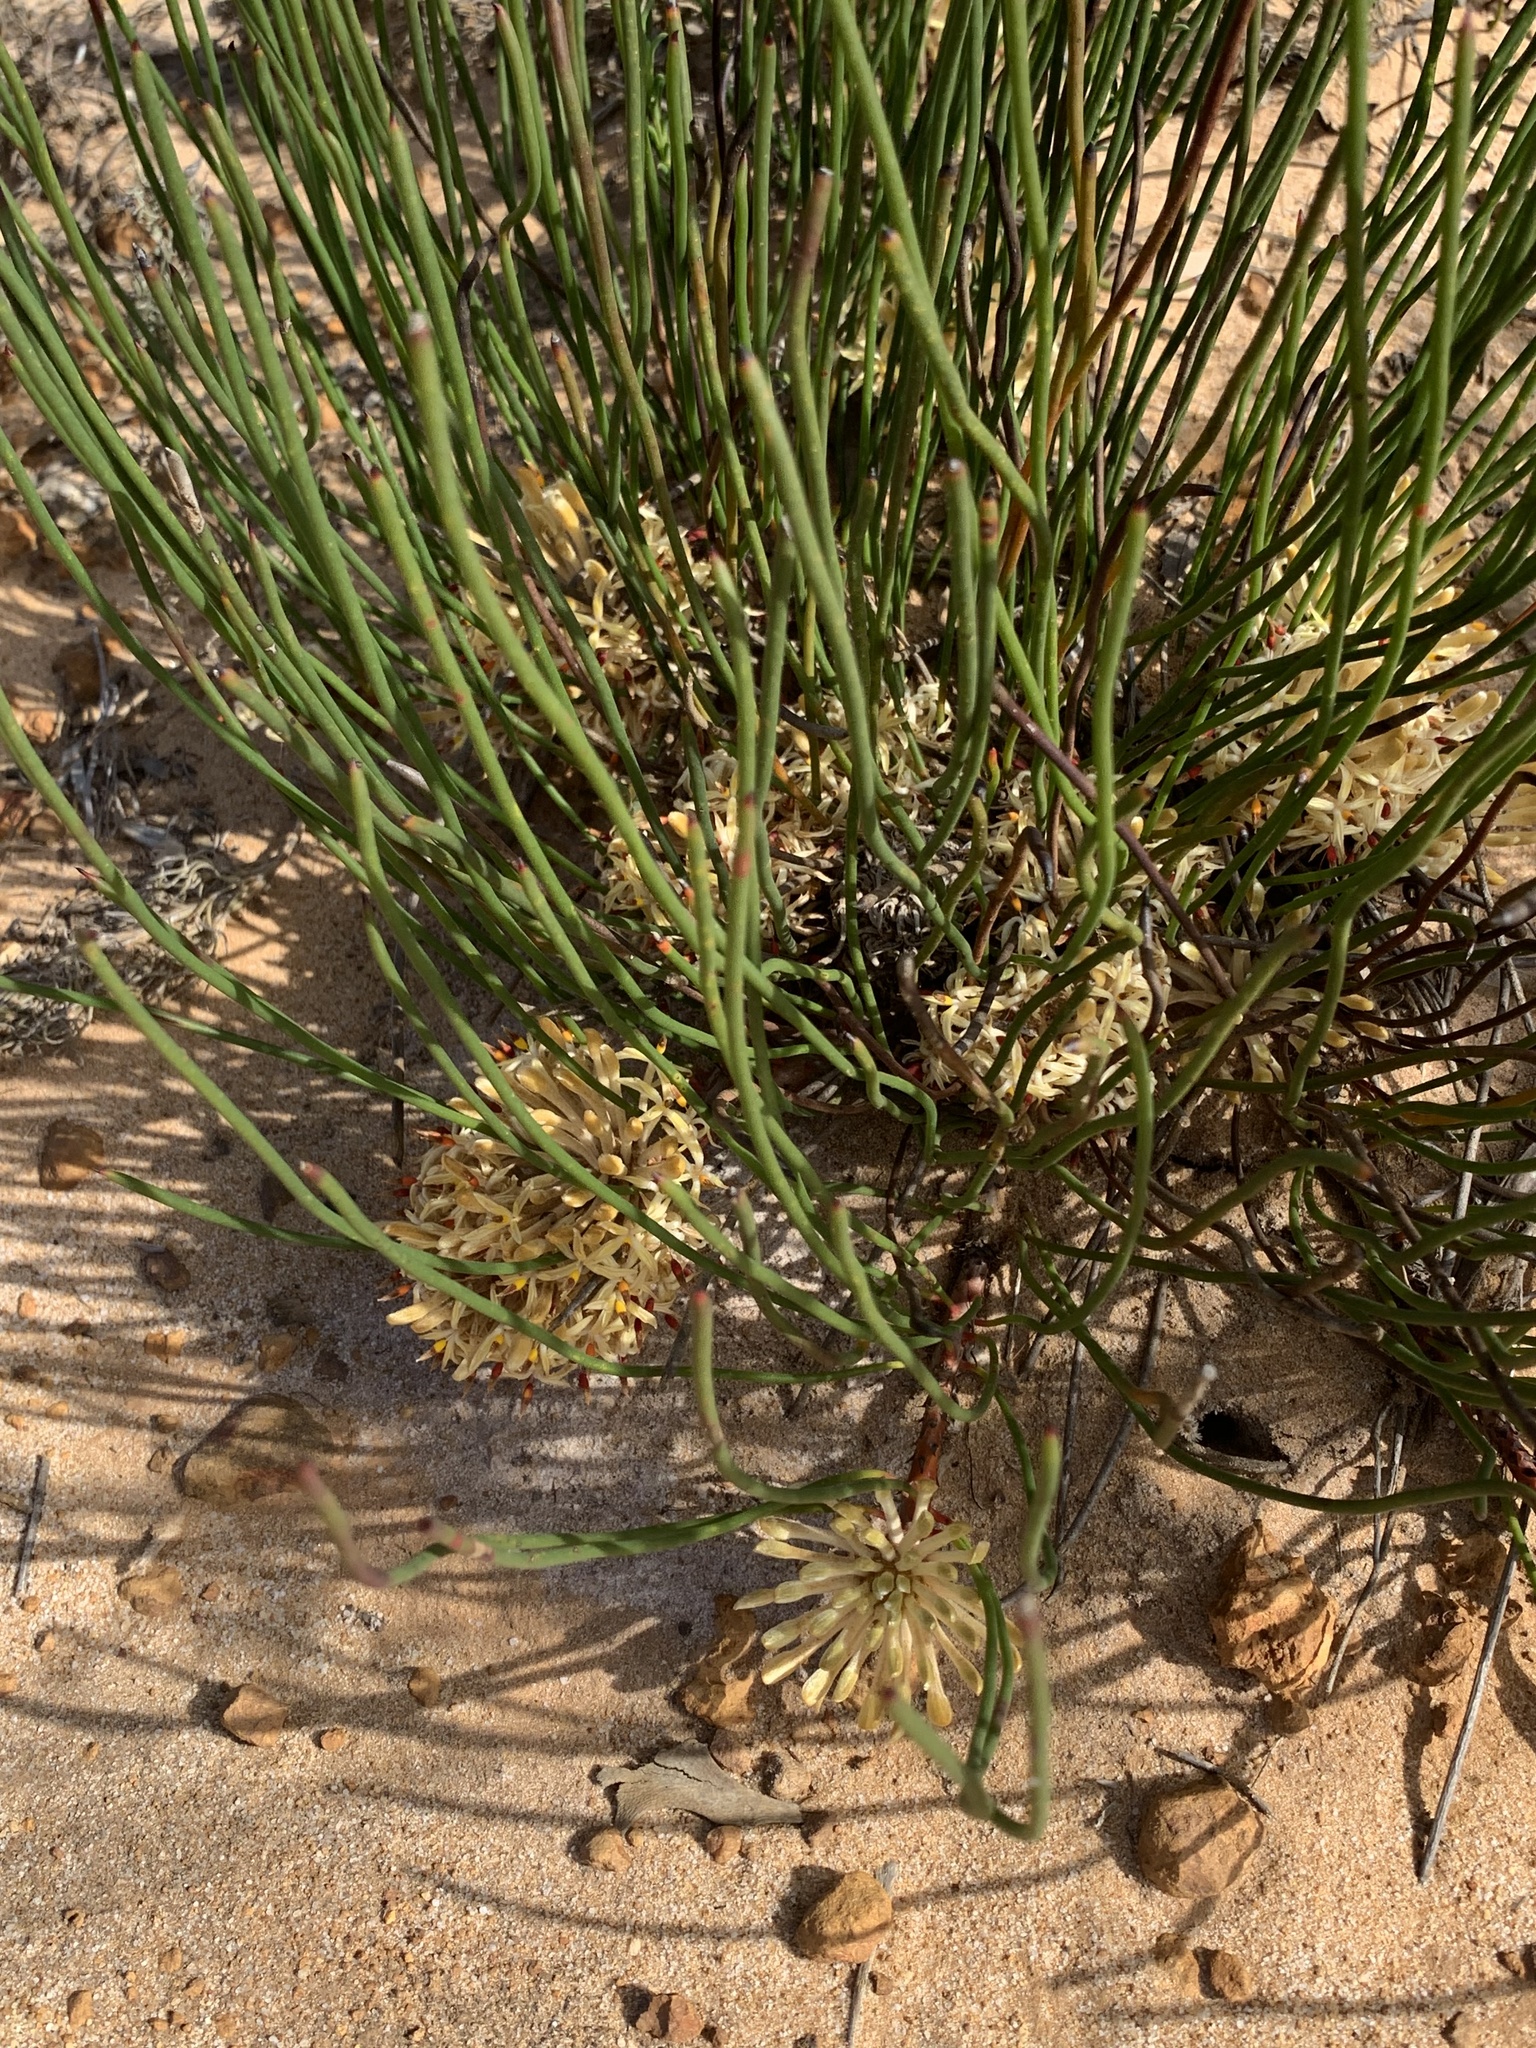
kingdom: Plantae
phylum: Tracheophyta
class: Magnoliopsida
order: Proteales
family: Proteaceae
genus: Petrophile
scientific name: Petrophile prostrata
